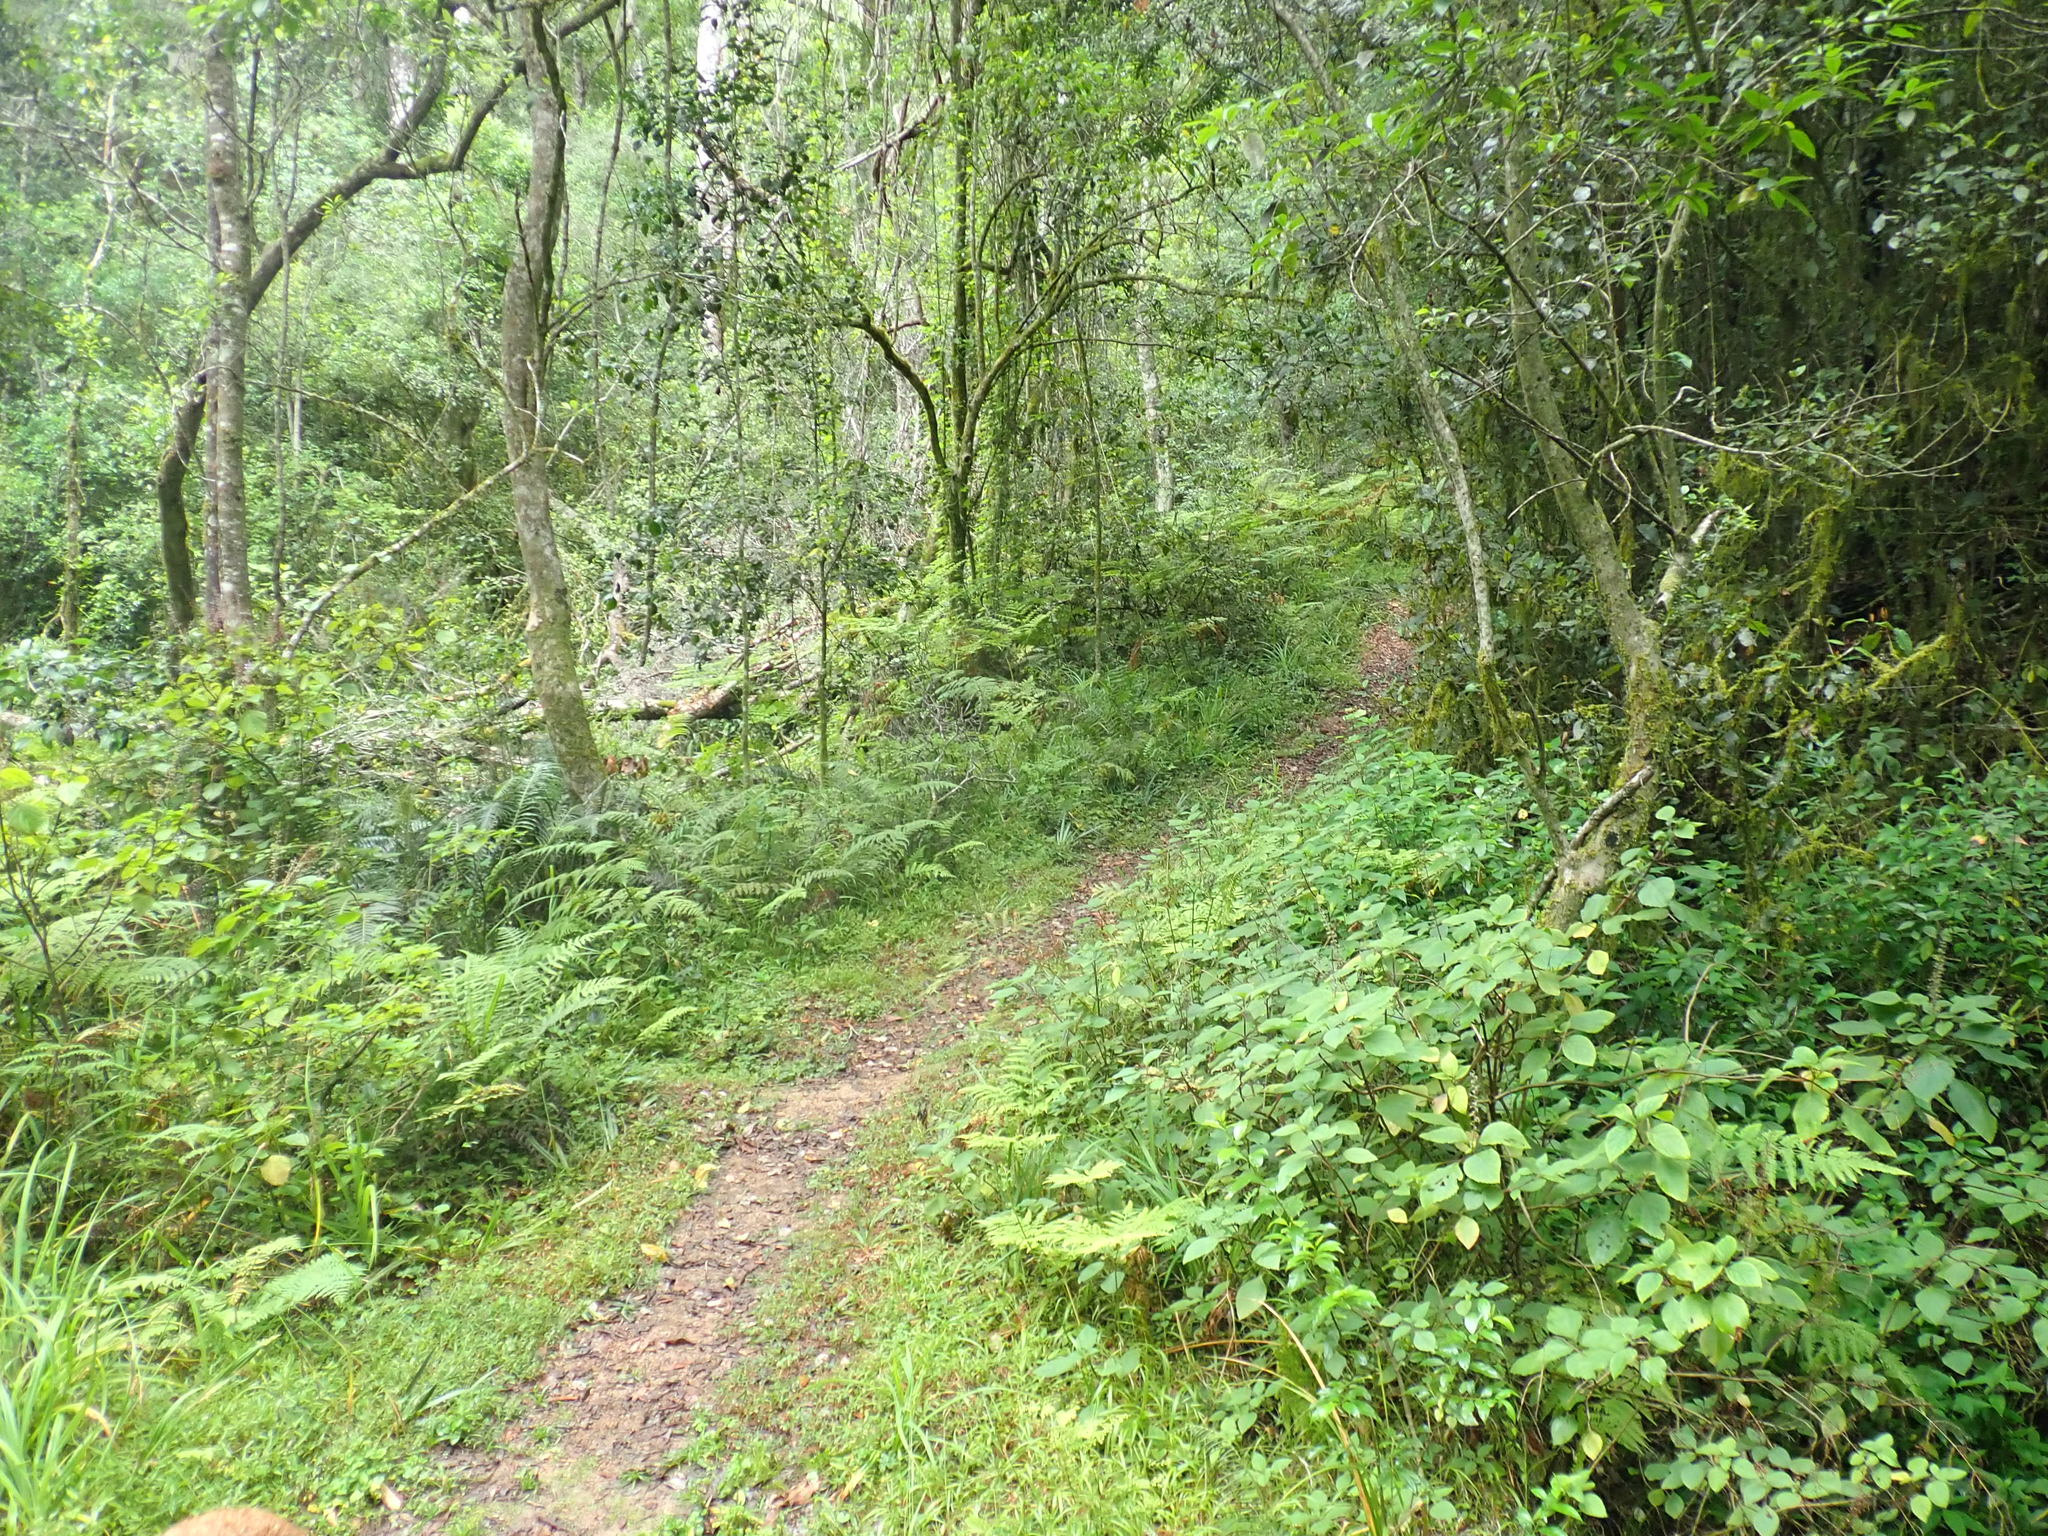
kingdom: Plantae
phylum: Tracheophyta
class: Magnoliopsida
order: Lamiales
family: Lamiaceae
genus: Plectranthus
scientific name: Plectranthus fruticosus
